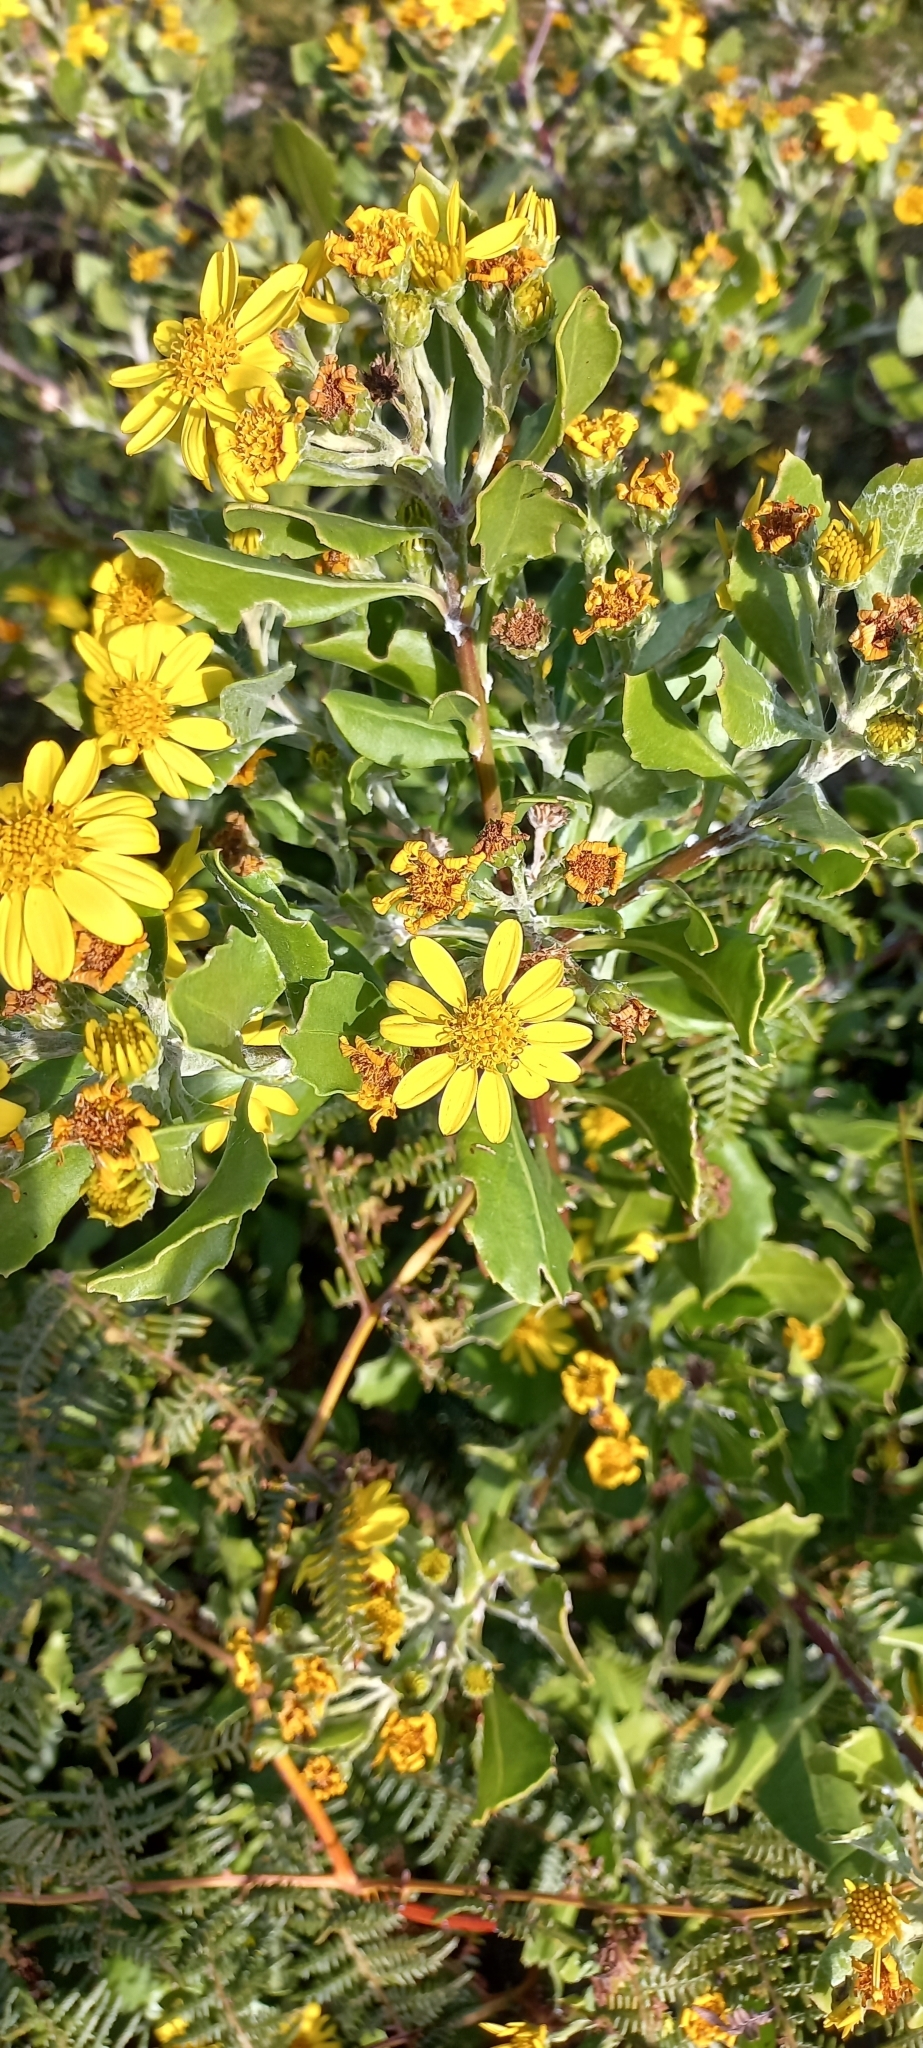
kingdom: Plantae
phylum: Tracheophyta
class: Magnoliopsida
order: Asterales
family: Asteraceae
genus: Osteospermum
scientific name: Osteospermum moniliferum
